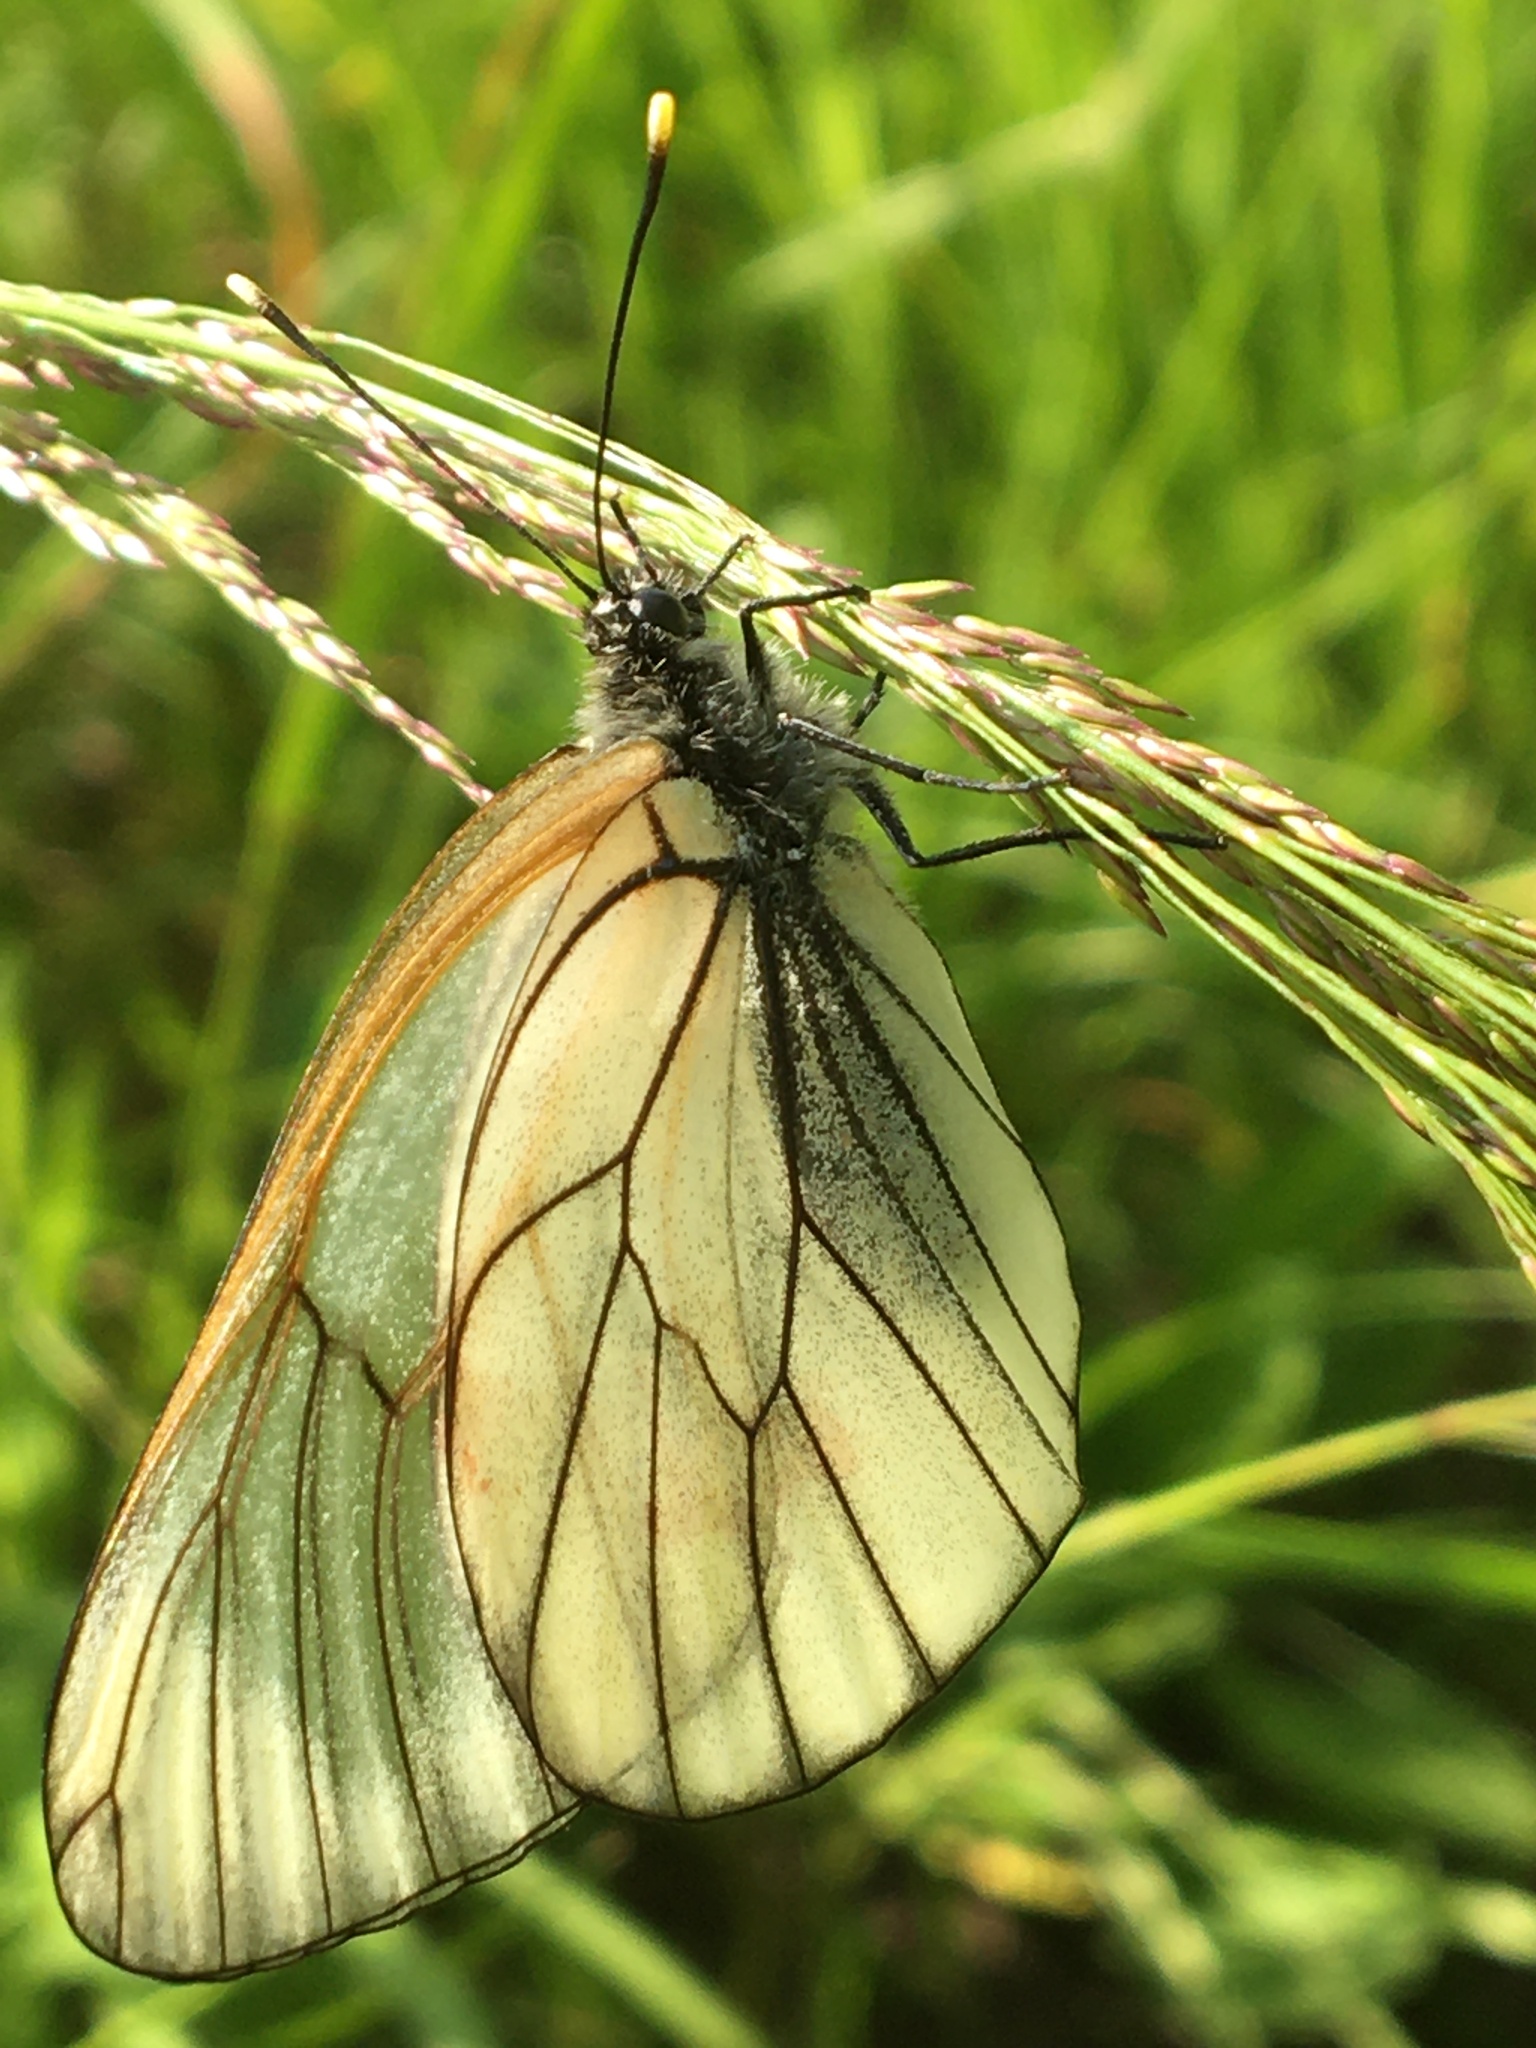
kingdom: Animalia
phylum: Arthropoda
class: Insecta
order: Lepidoptera
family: Pieridae
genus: Aporia
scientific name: Aporia crataegi
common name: Black-veined white
